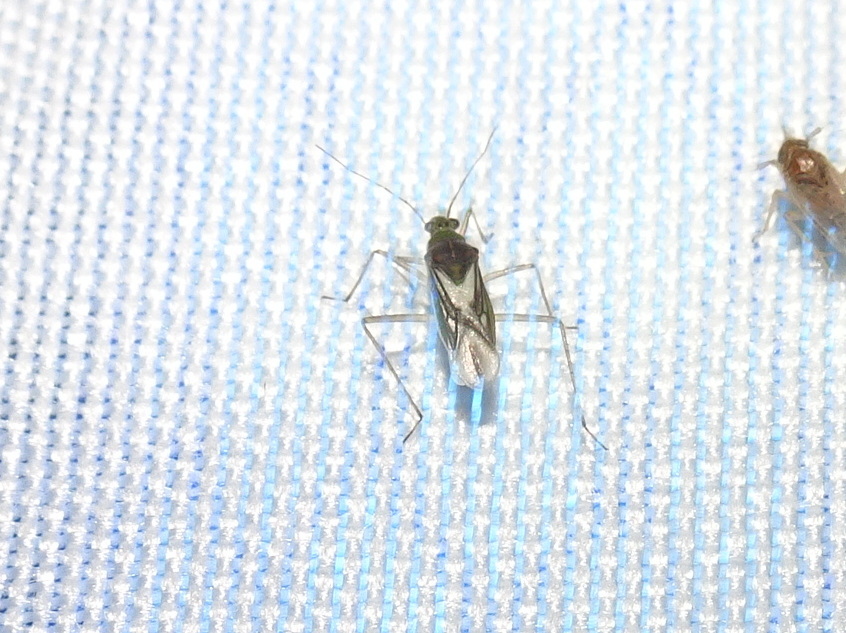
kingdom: Animalia
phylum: Arthropoda
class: Insecta
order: Hemiptera
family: Mesoveliidae
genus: Mesovelia
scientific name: Mesovelia mulsanti
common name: Water treaders
